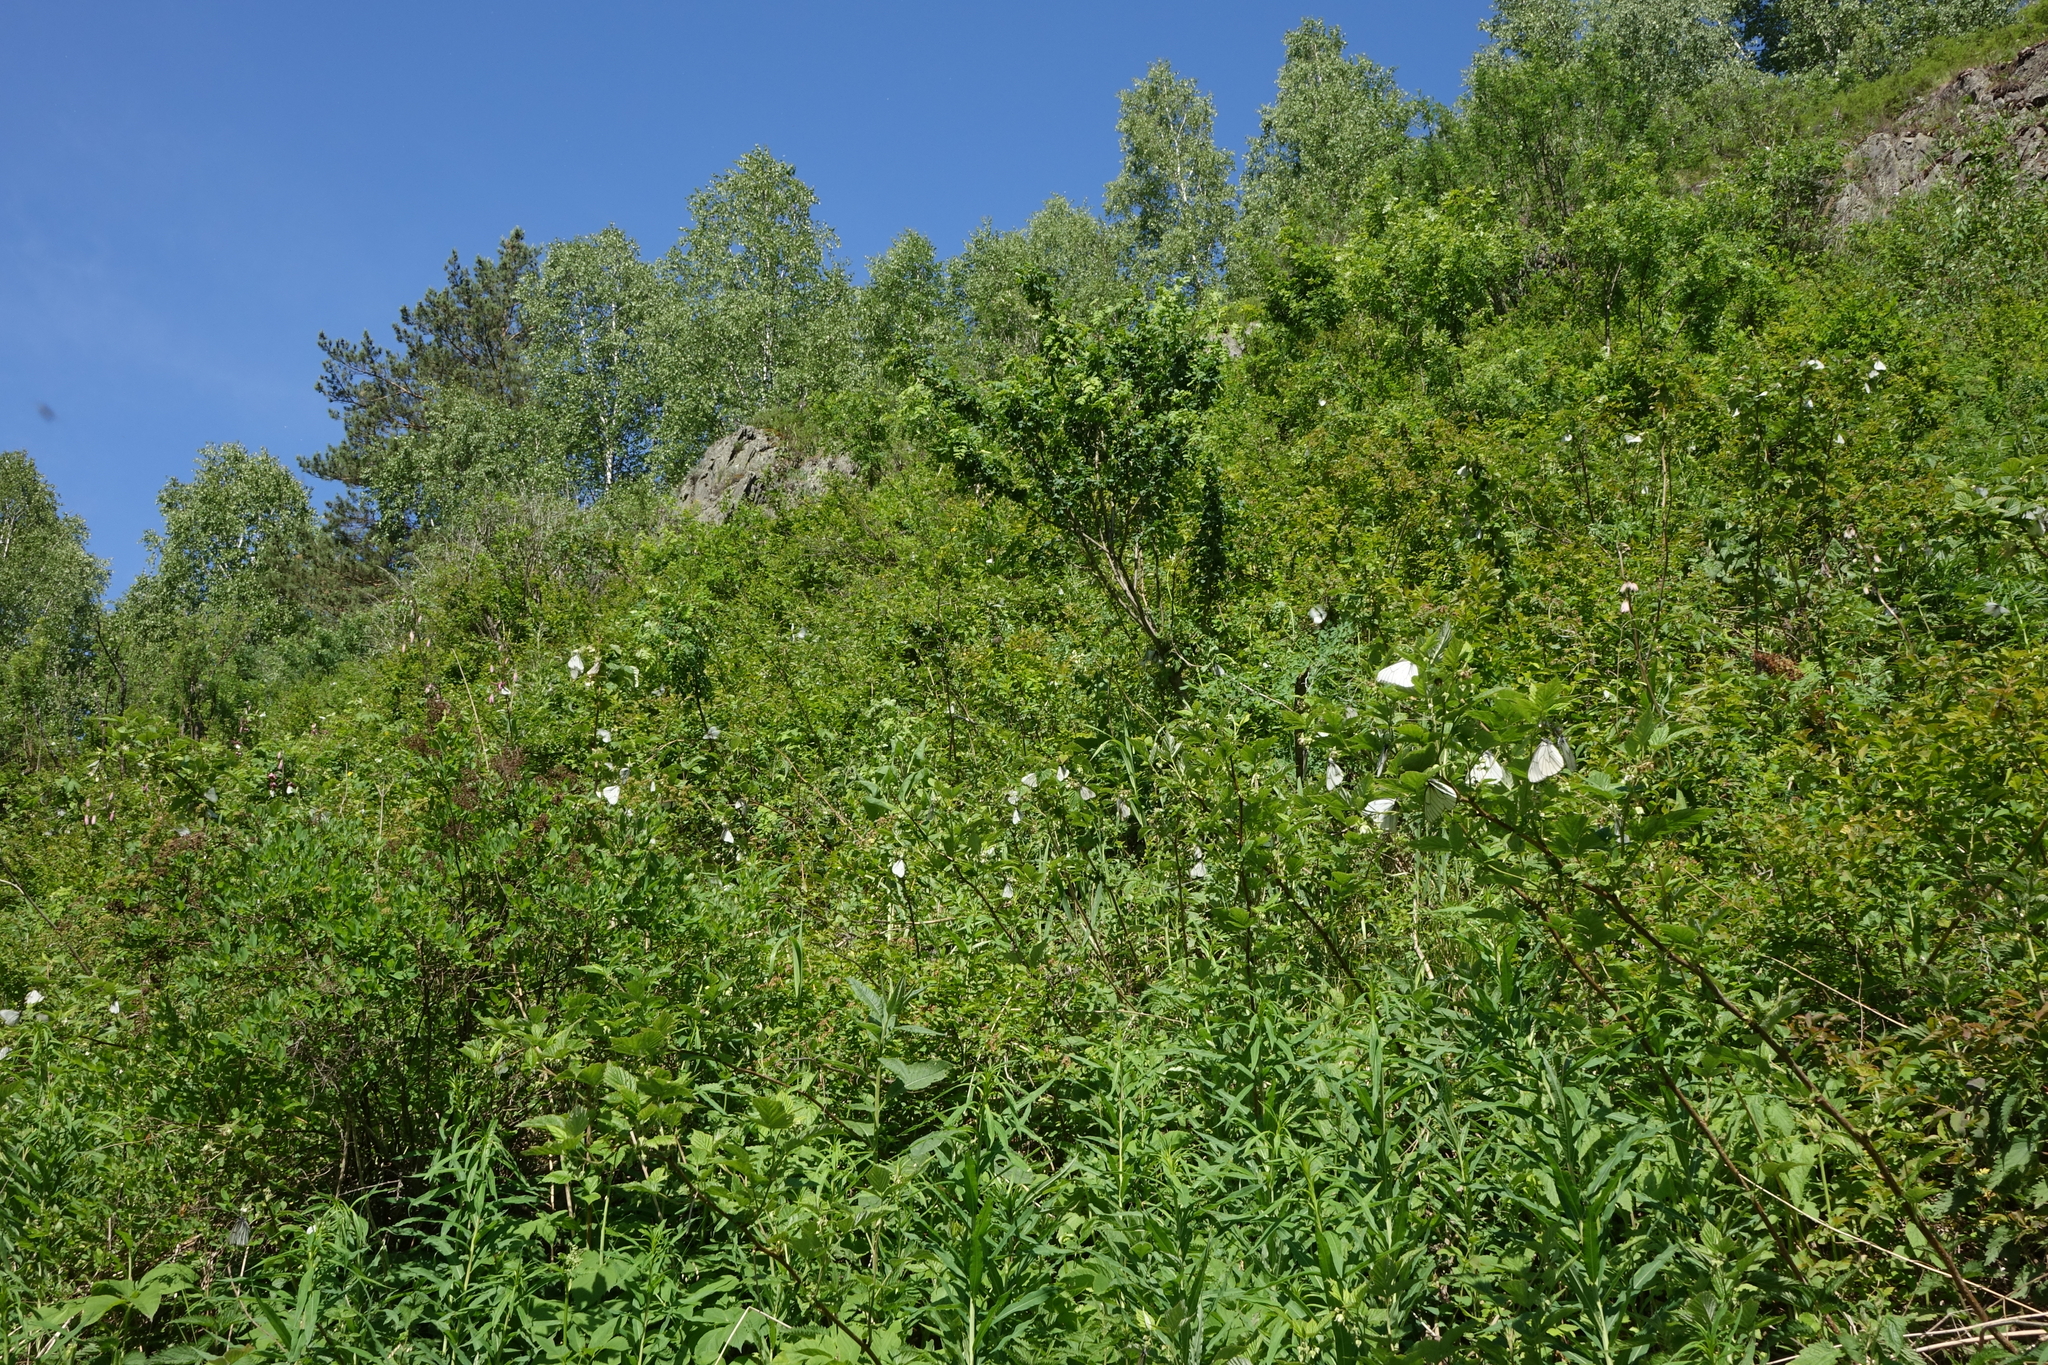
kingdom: Plantae
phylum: Tracheophyta
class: Magnoliopsida
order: Rosales
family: Rosaceae
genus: Rubus
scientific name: Rubus idaeus
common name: Raspberry
